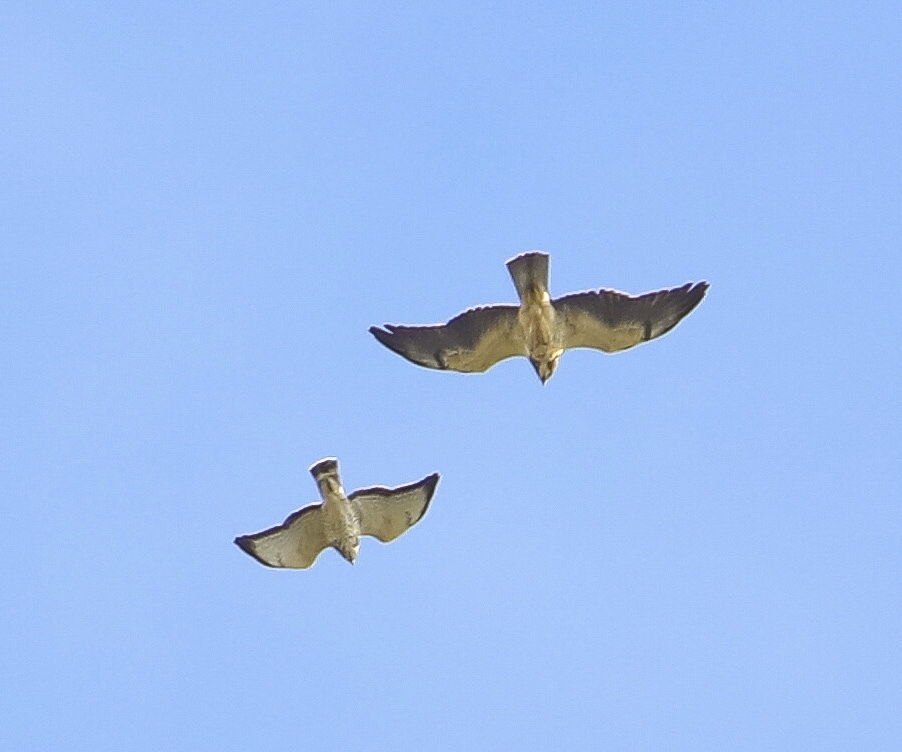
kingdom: Animalia
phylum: Chordata
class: Aves
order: Accipitriformes
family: Accipitridae
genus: Buteo
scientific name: Buteo swainsoni
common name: Swainson's hawk
